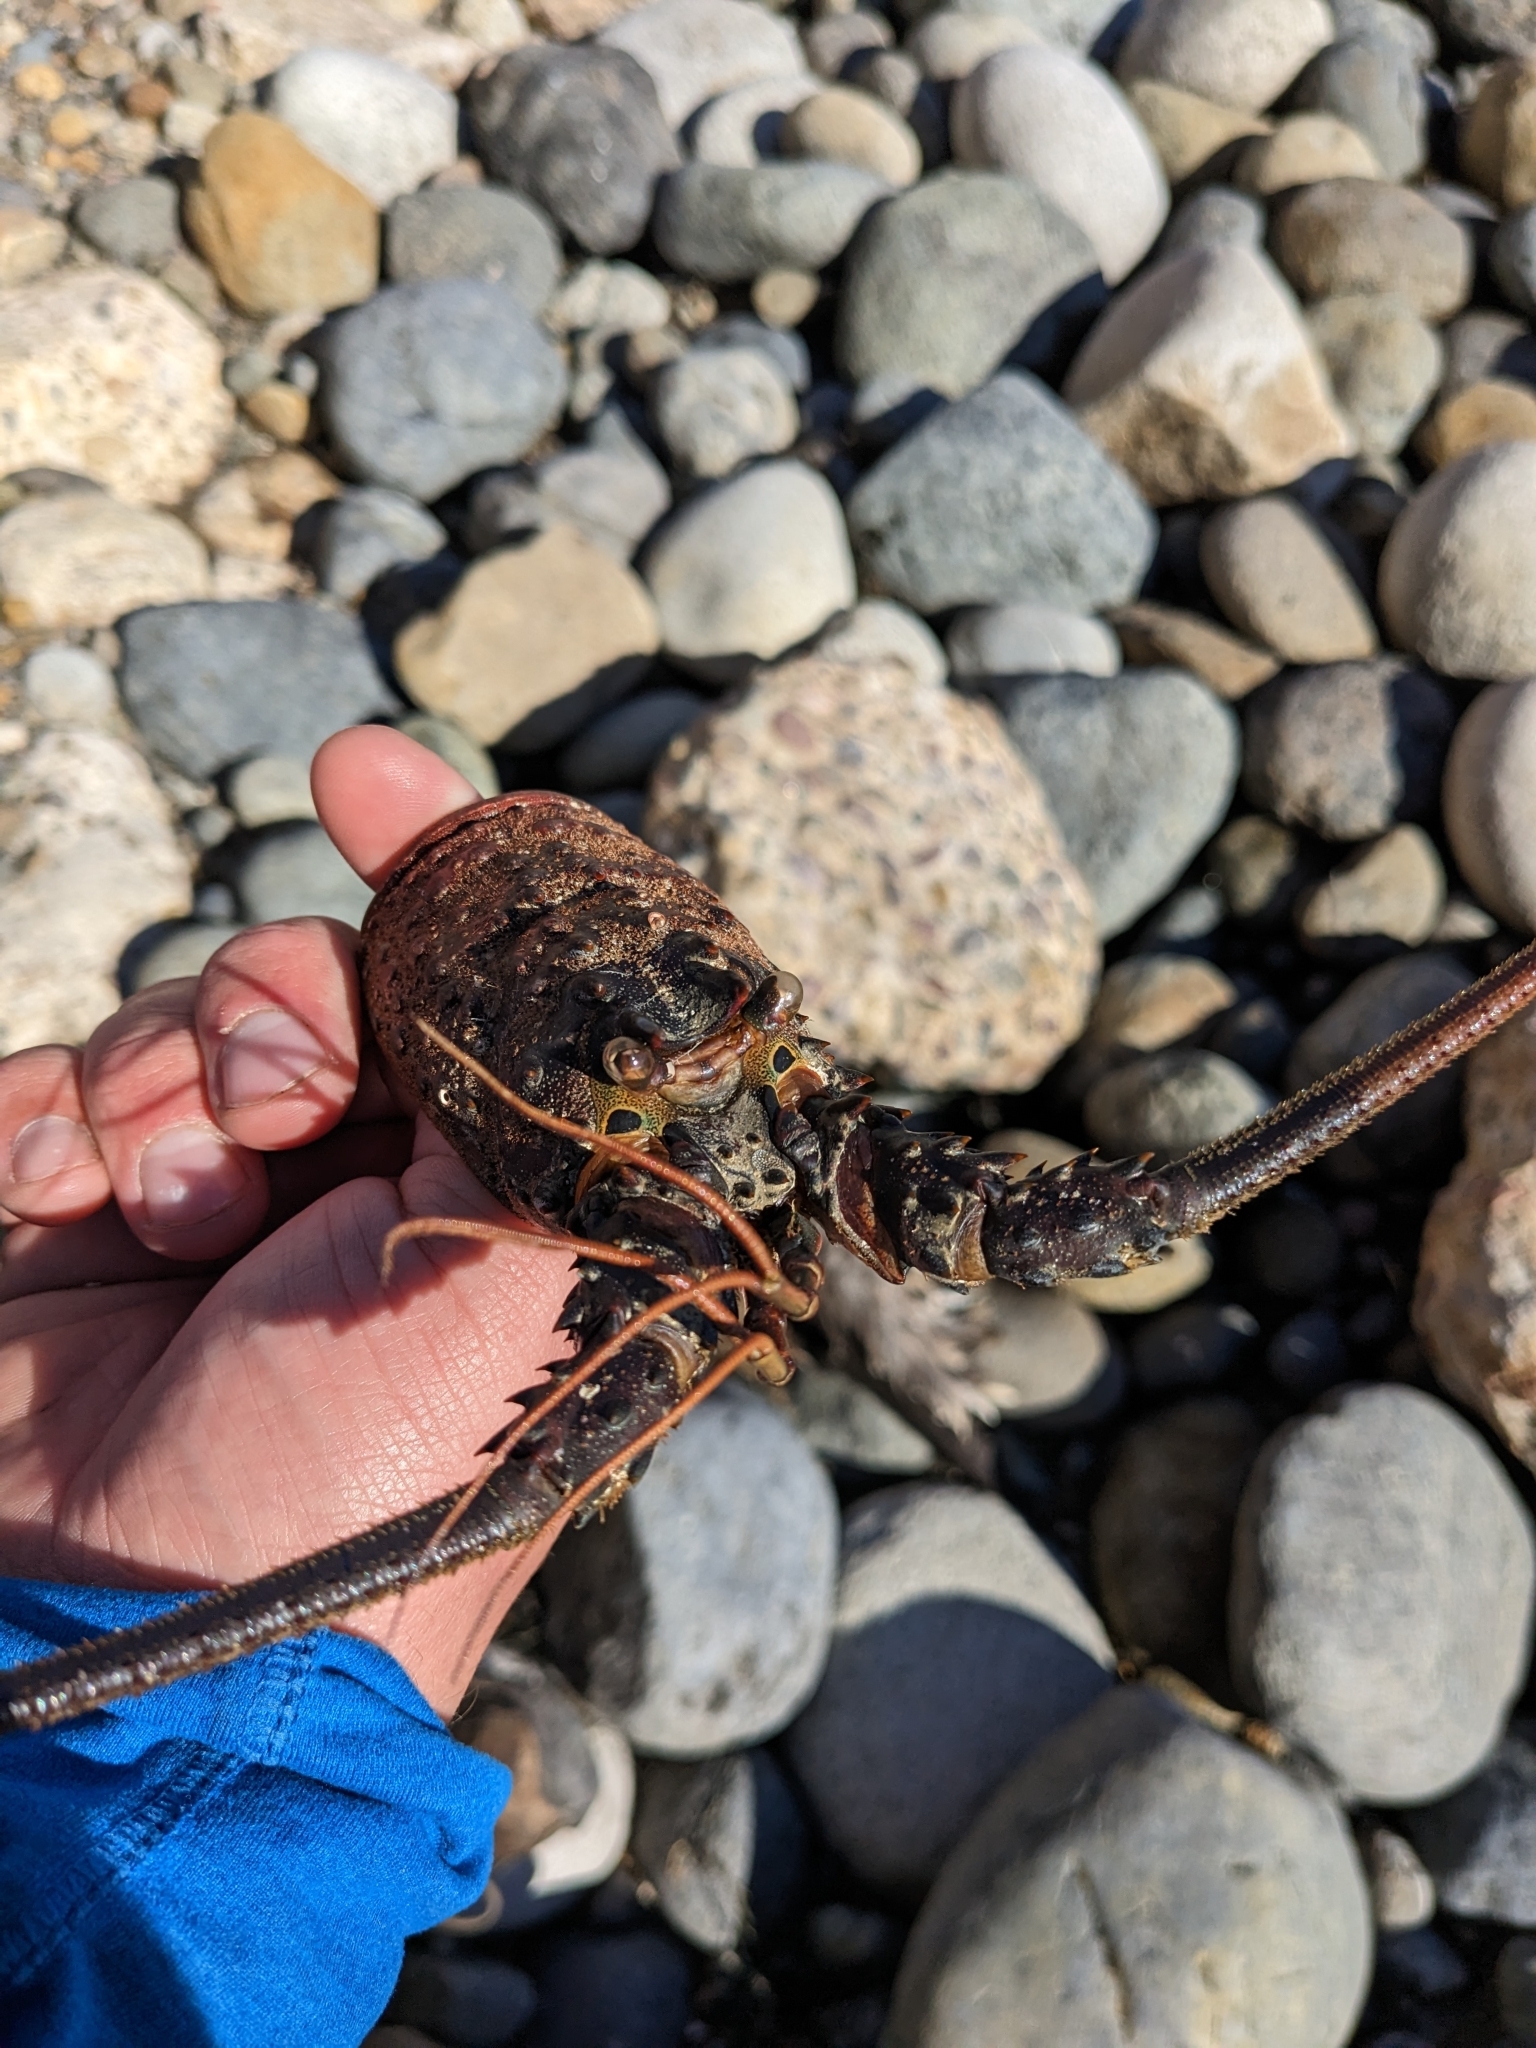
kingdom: Animalia
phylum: Arthropoda
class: Malacostraca
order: Decapoda
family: Palinuridae
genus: Panulirus
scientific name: Panulirus interruptus
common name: California spiny lobster
